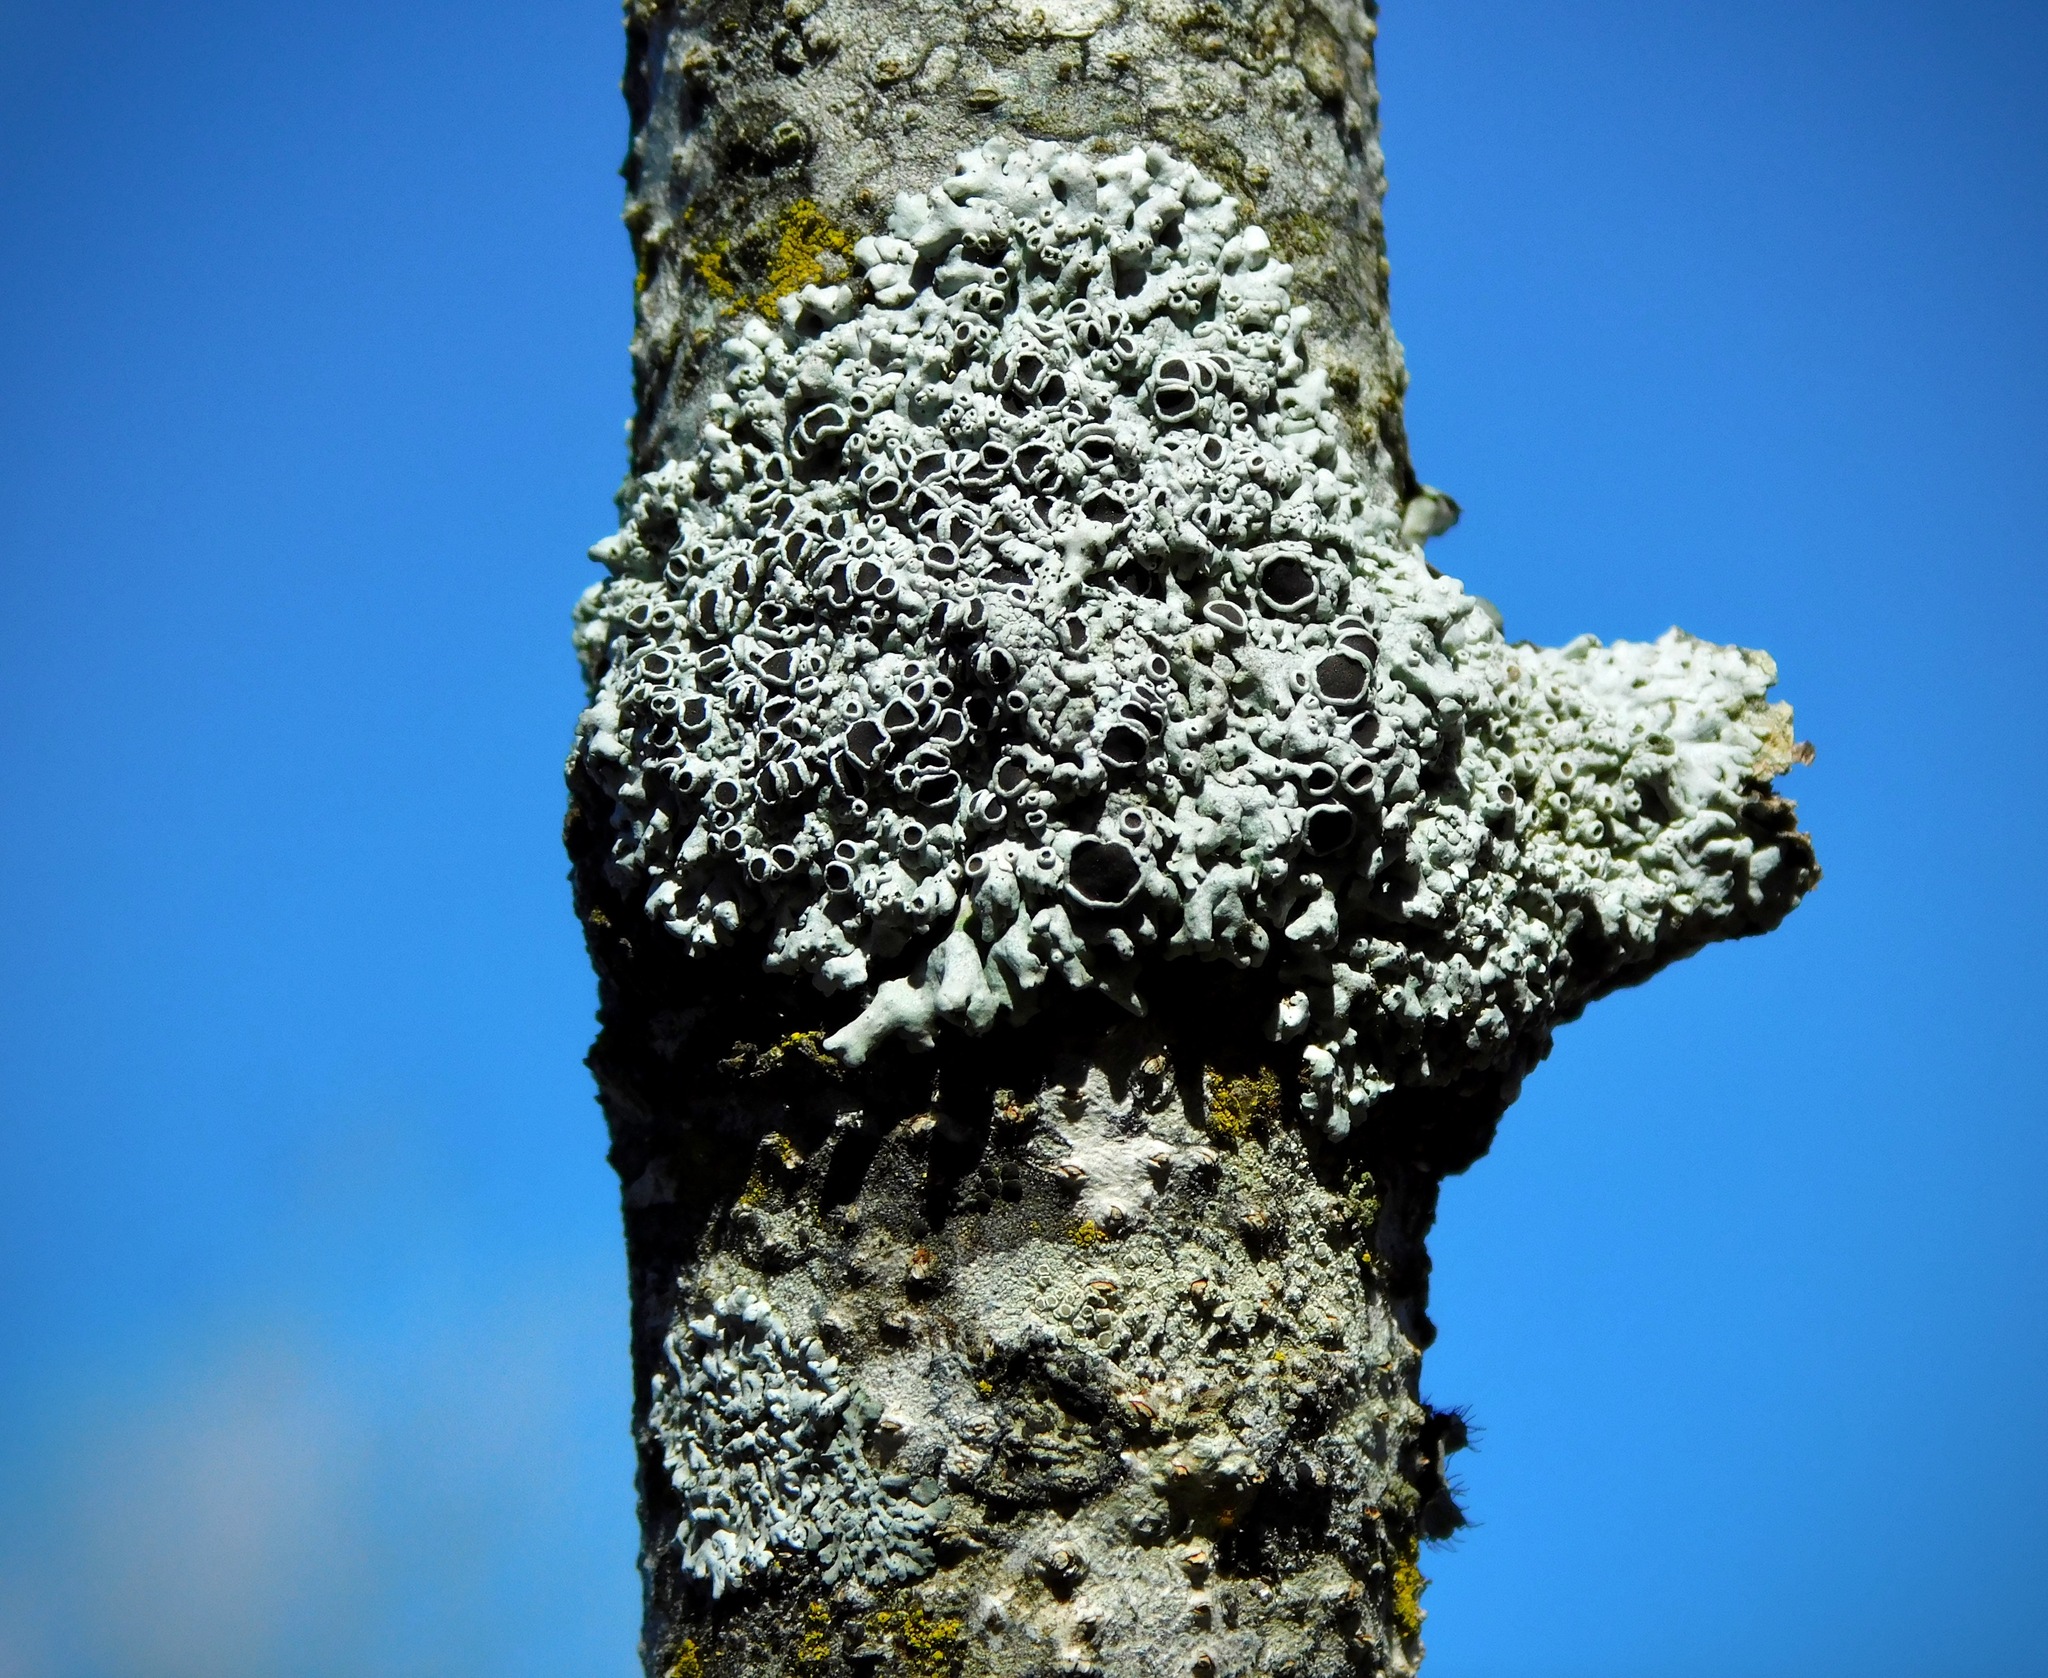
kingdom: Fungi
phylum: Ascomycota
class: Lecanoromycetes
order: Caliciales
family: Physciaceae
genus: Physcia
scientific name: Physcia stellaris
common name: Star rosette lichen
